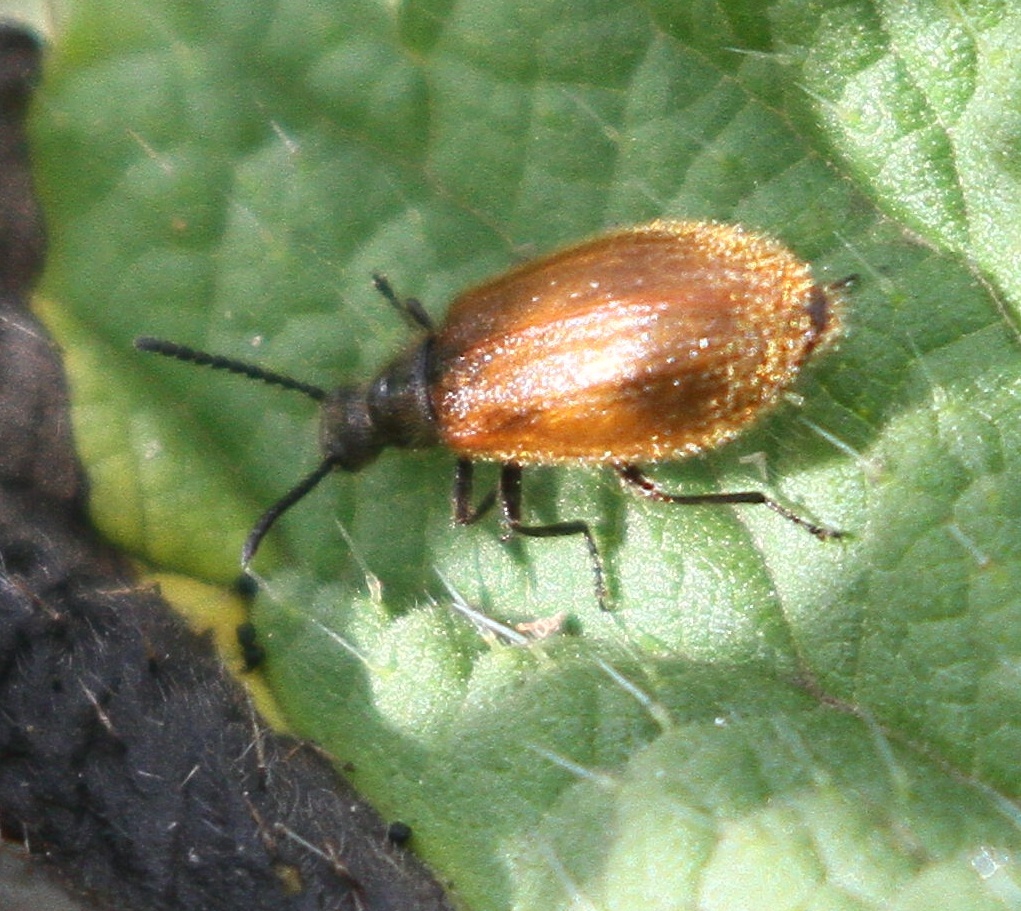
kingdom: Animalia
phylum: Arthropoda
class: Insecta
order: Coleoptera
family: Tenebrionidae
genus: Lagria
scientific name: Lagria hirta
